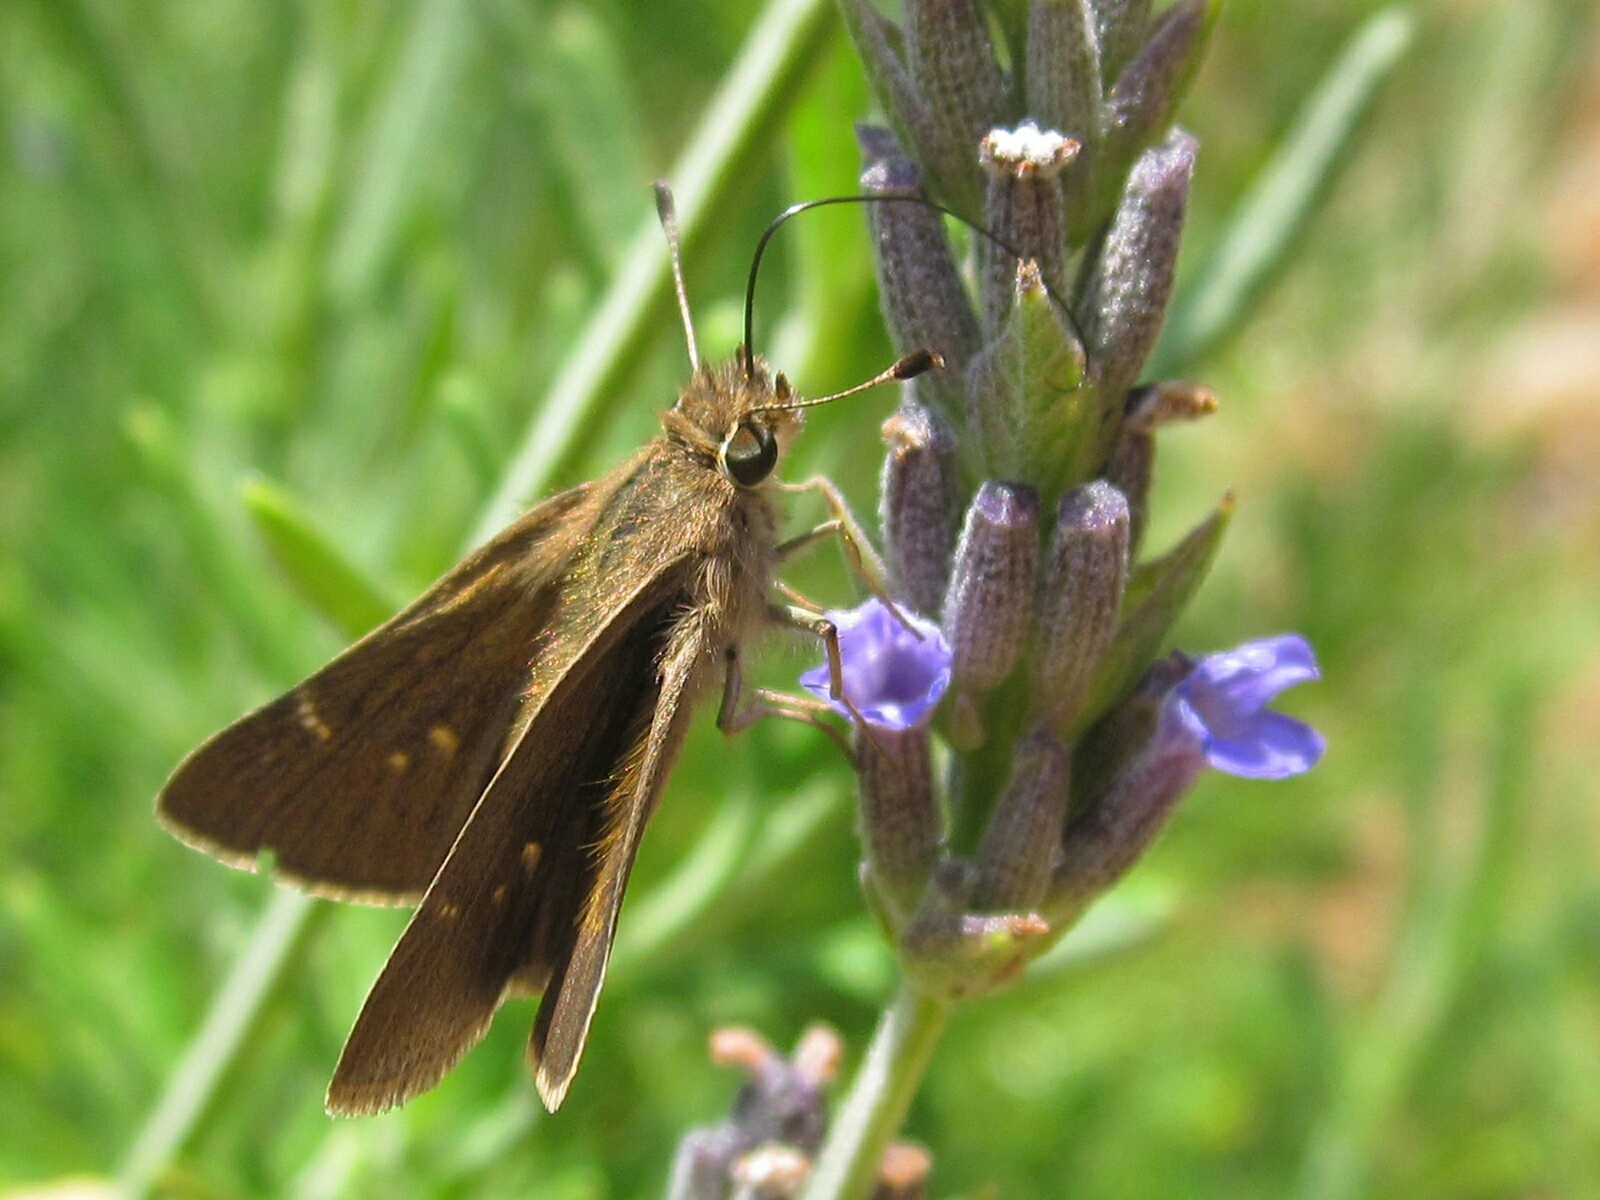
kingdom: Animalia
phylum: Arthropoda
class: Insecta
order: Lepidoptera
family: Hesperiidae
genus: Lerodea
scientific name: Lerodea eufala
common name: Eufala skipper
